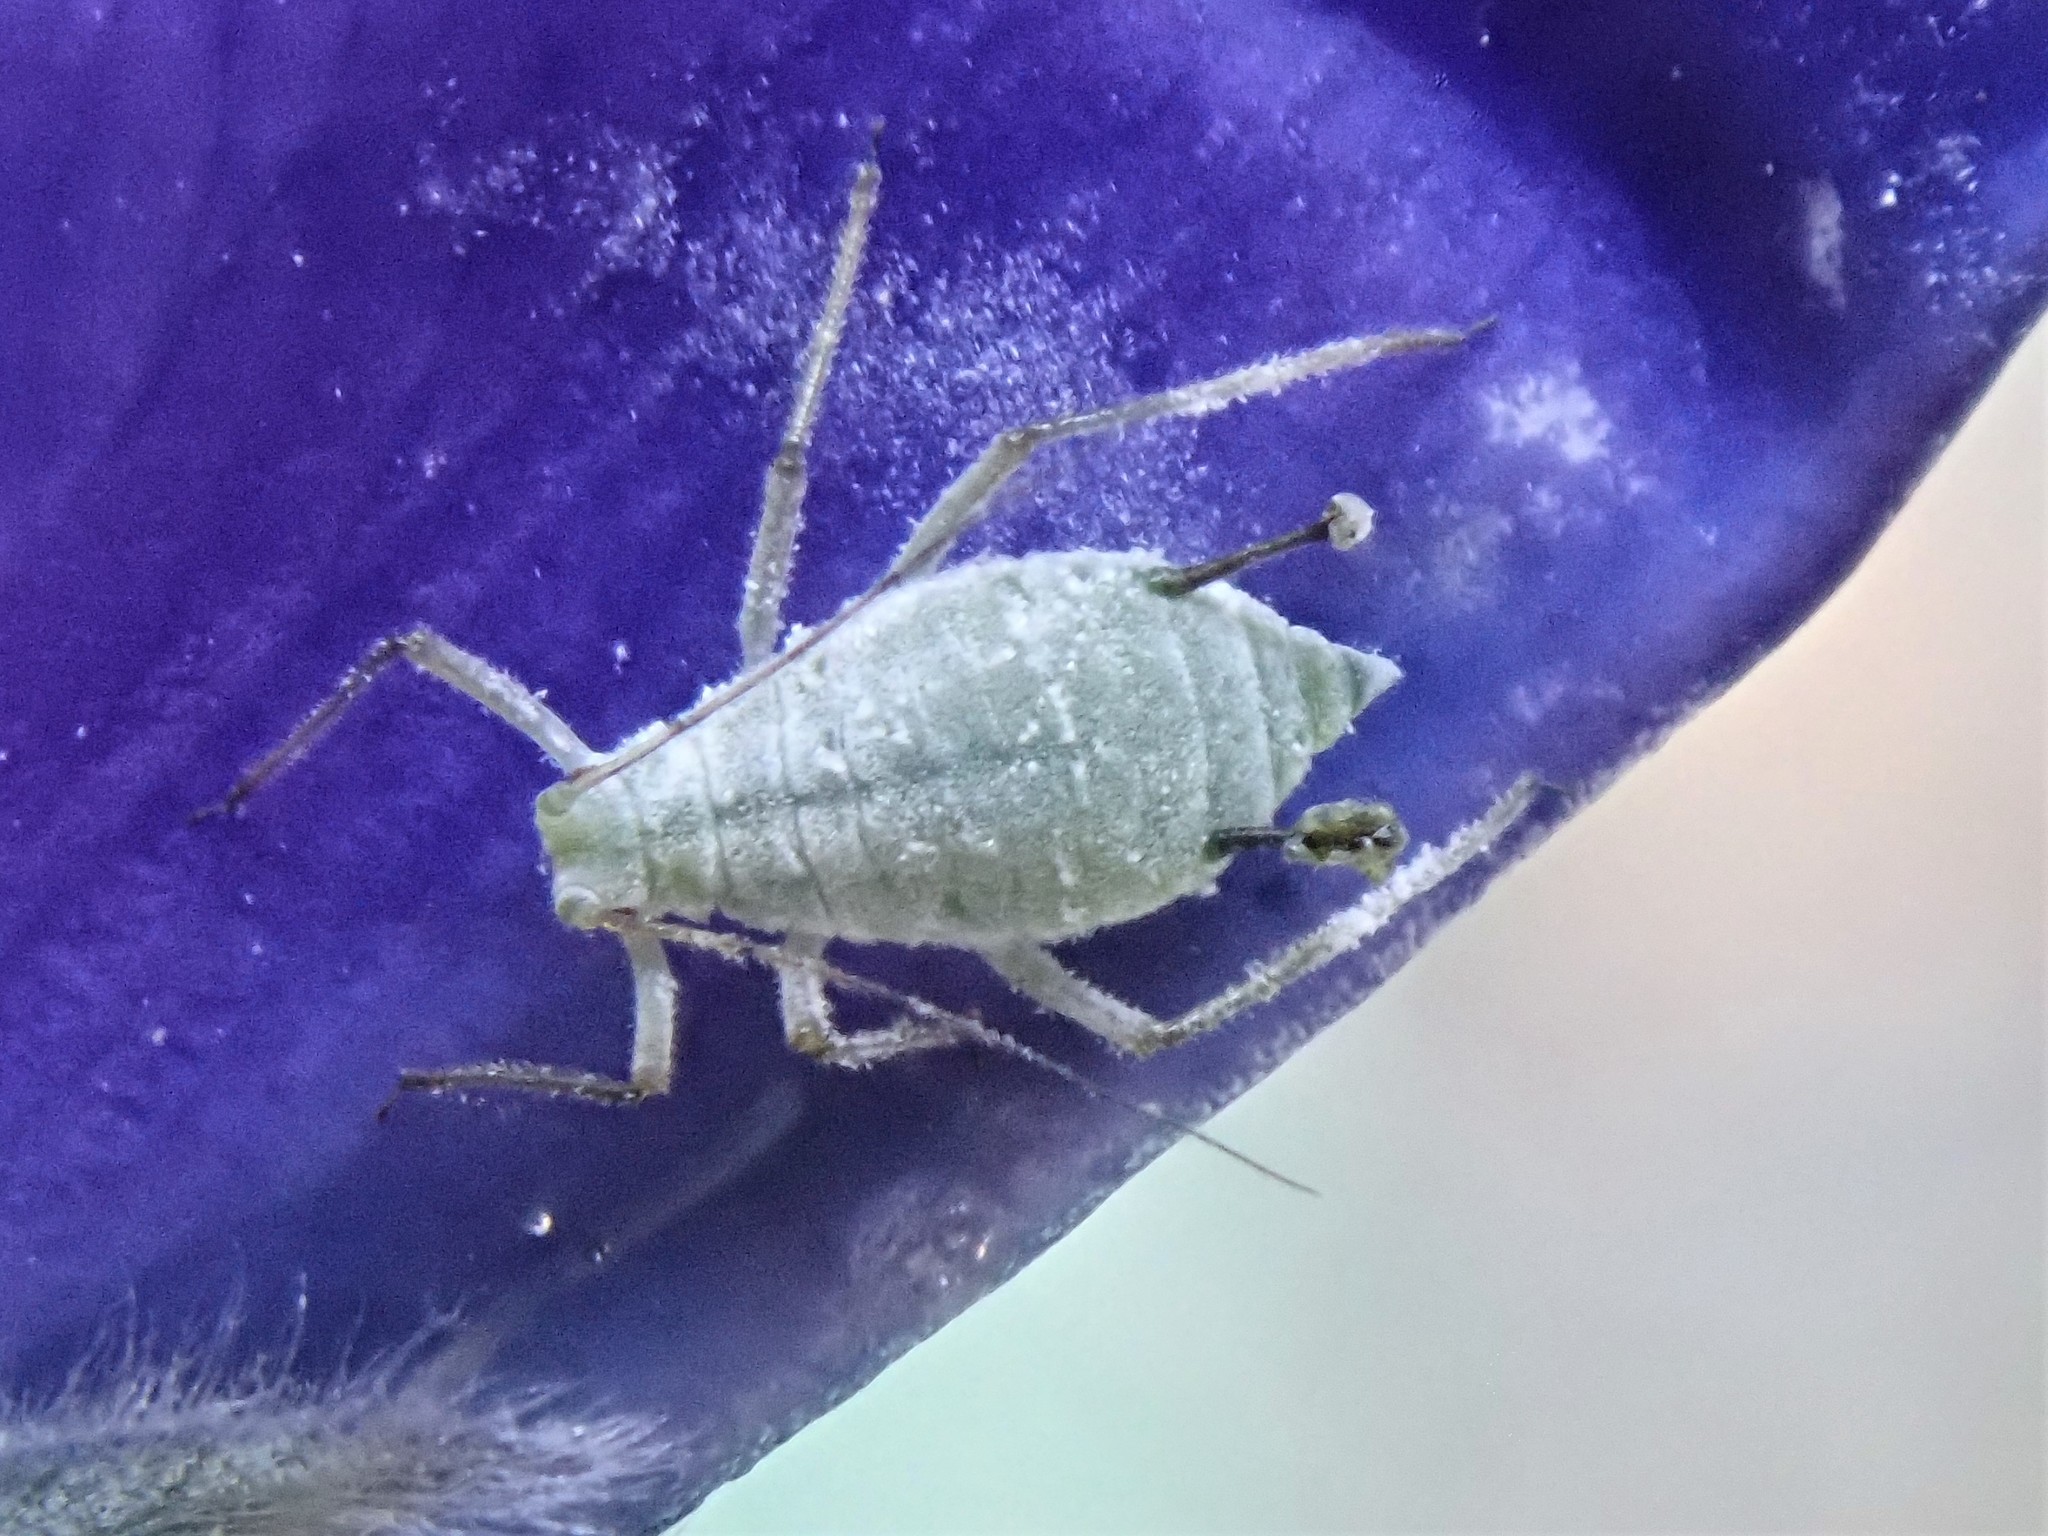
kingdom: Animalia
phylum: Arthropoda
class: Insecta
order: Hemiptera
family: Aphididae
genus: Macrosiphum
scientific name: Macrosiphum albifrons
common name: Lupine aphid
